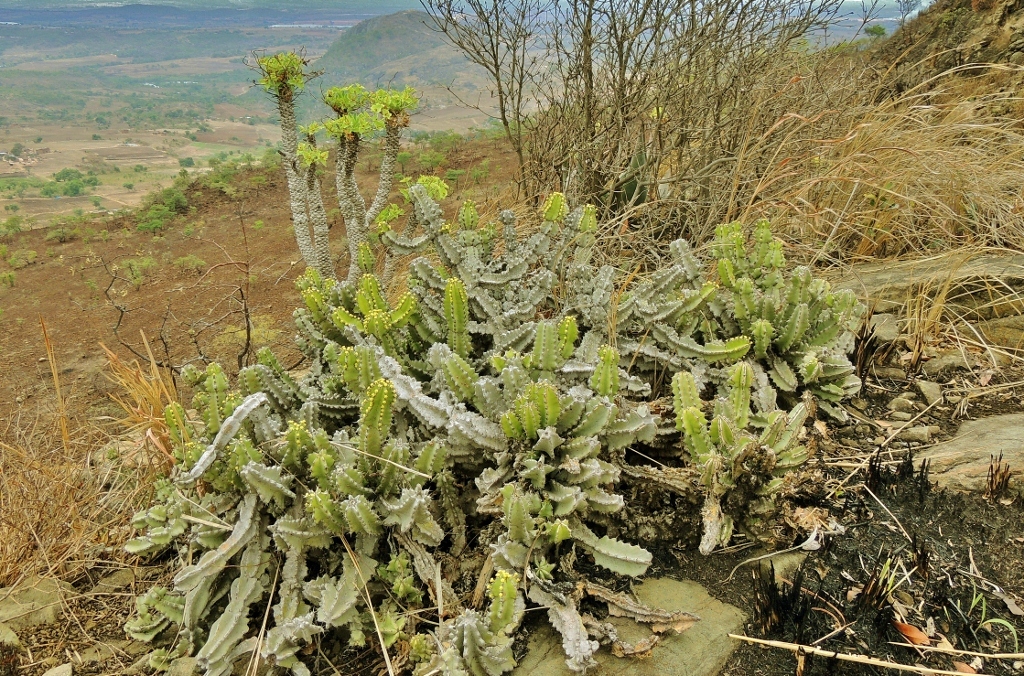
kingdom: Plantae
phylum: Tracheophyta
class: Magnoliopsida
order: Malpighiales
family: Euphorbiaceae
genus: Euphorbia
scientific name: Euphorbia memoralis
